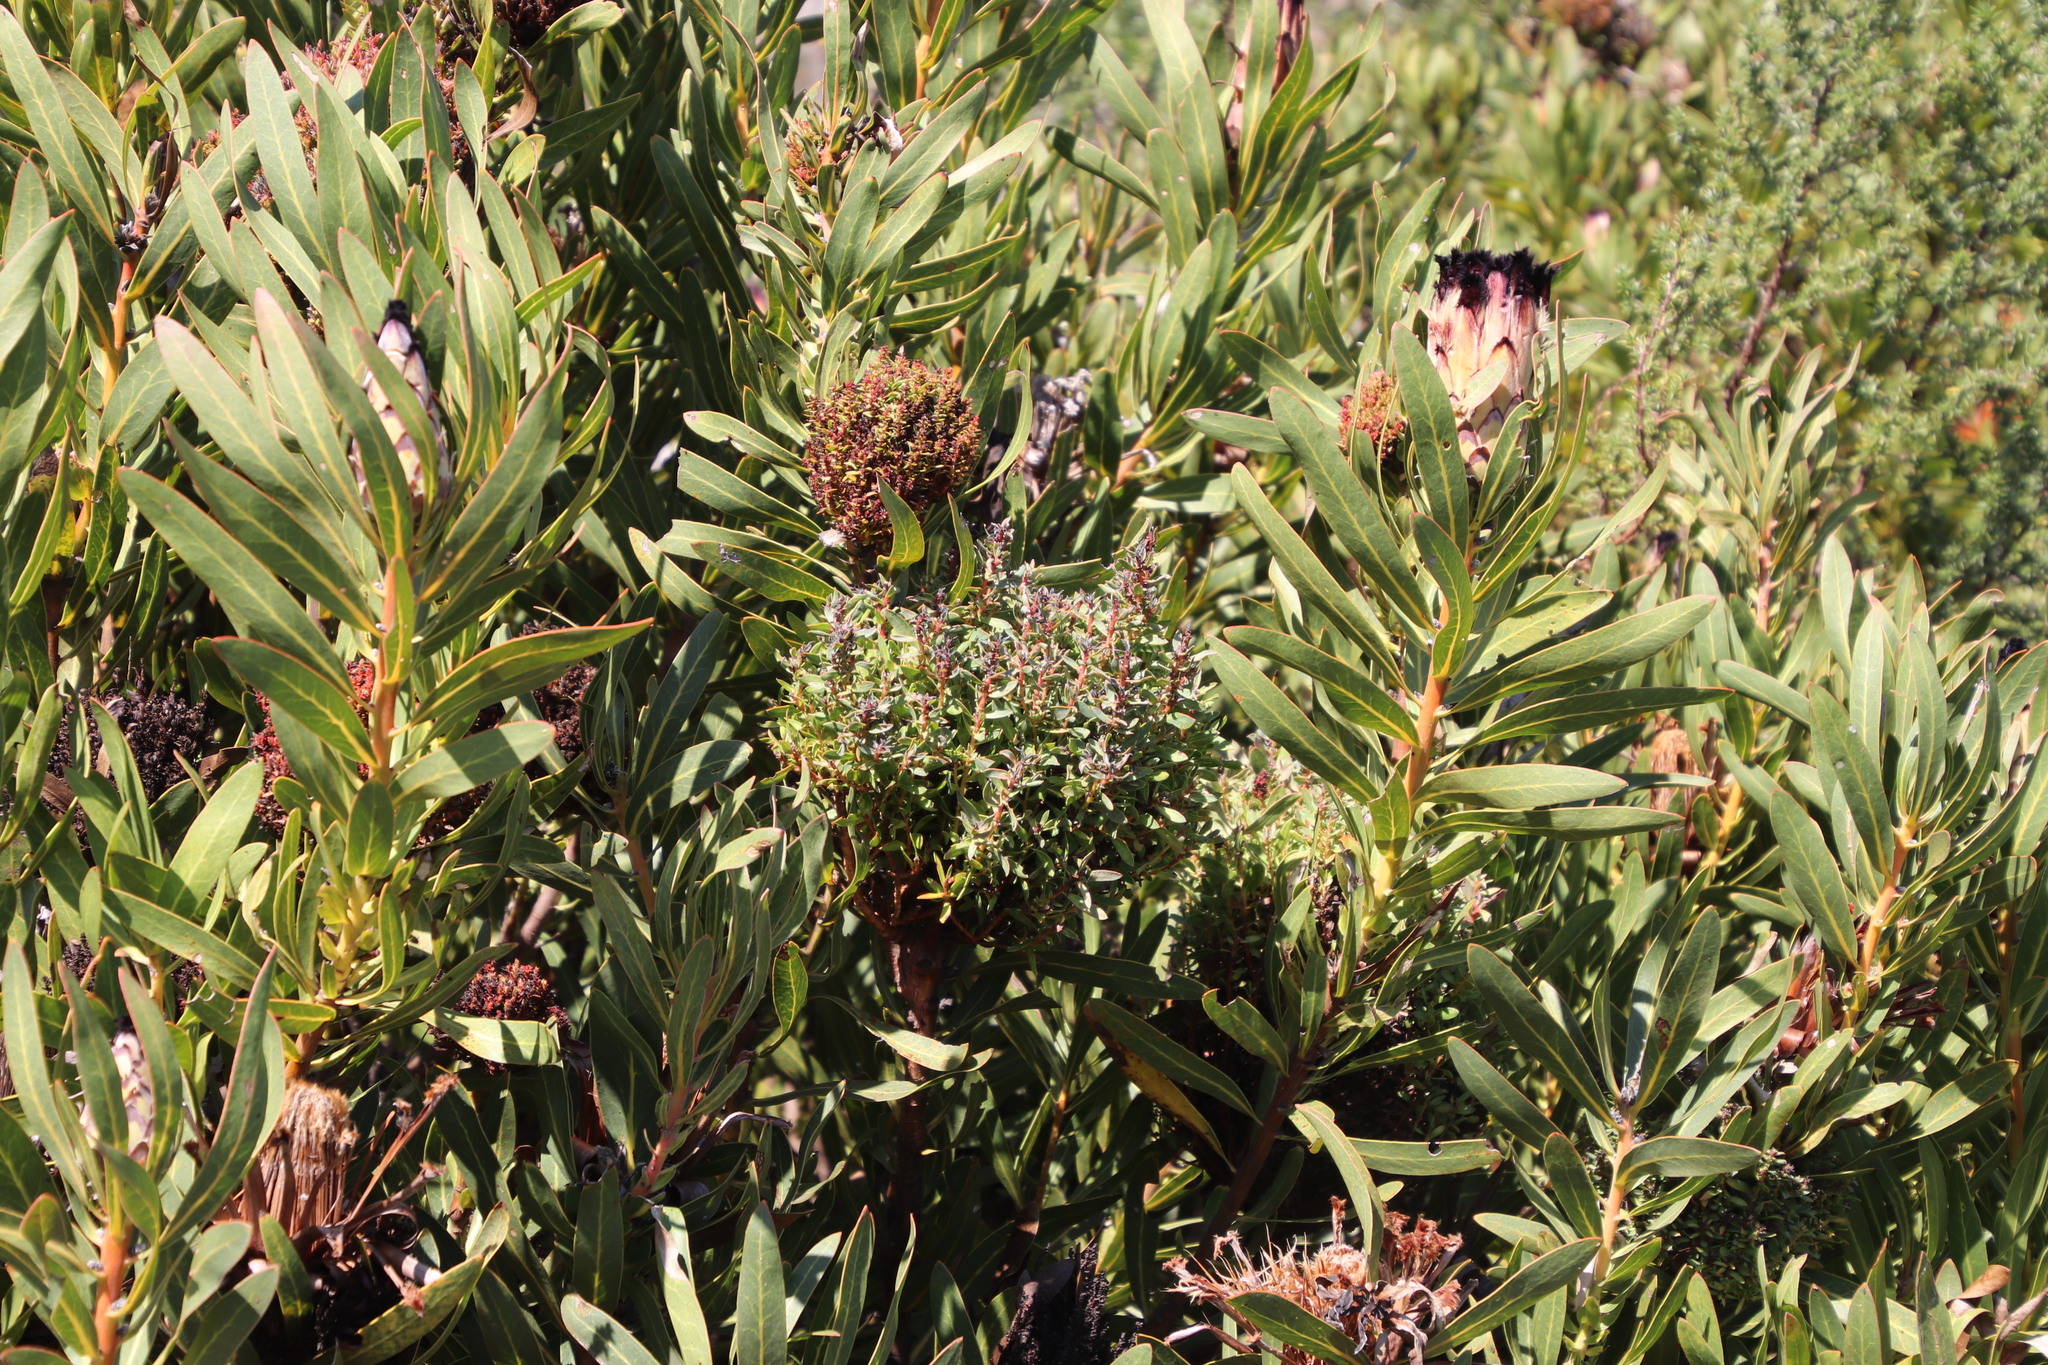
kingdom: Bacteria
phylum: Firmicutes
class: Bacilli
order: Acholeplasmatales
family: Acholeplasmataceae
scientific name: Acholeplasmataceae
